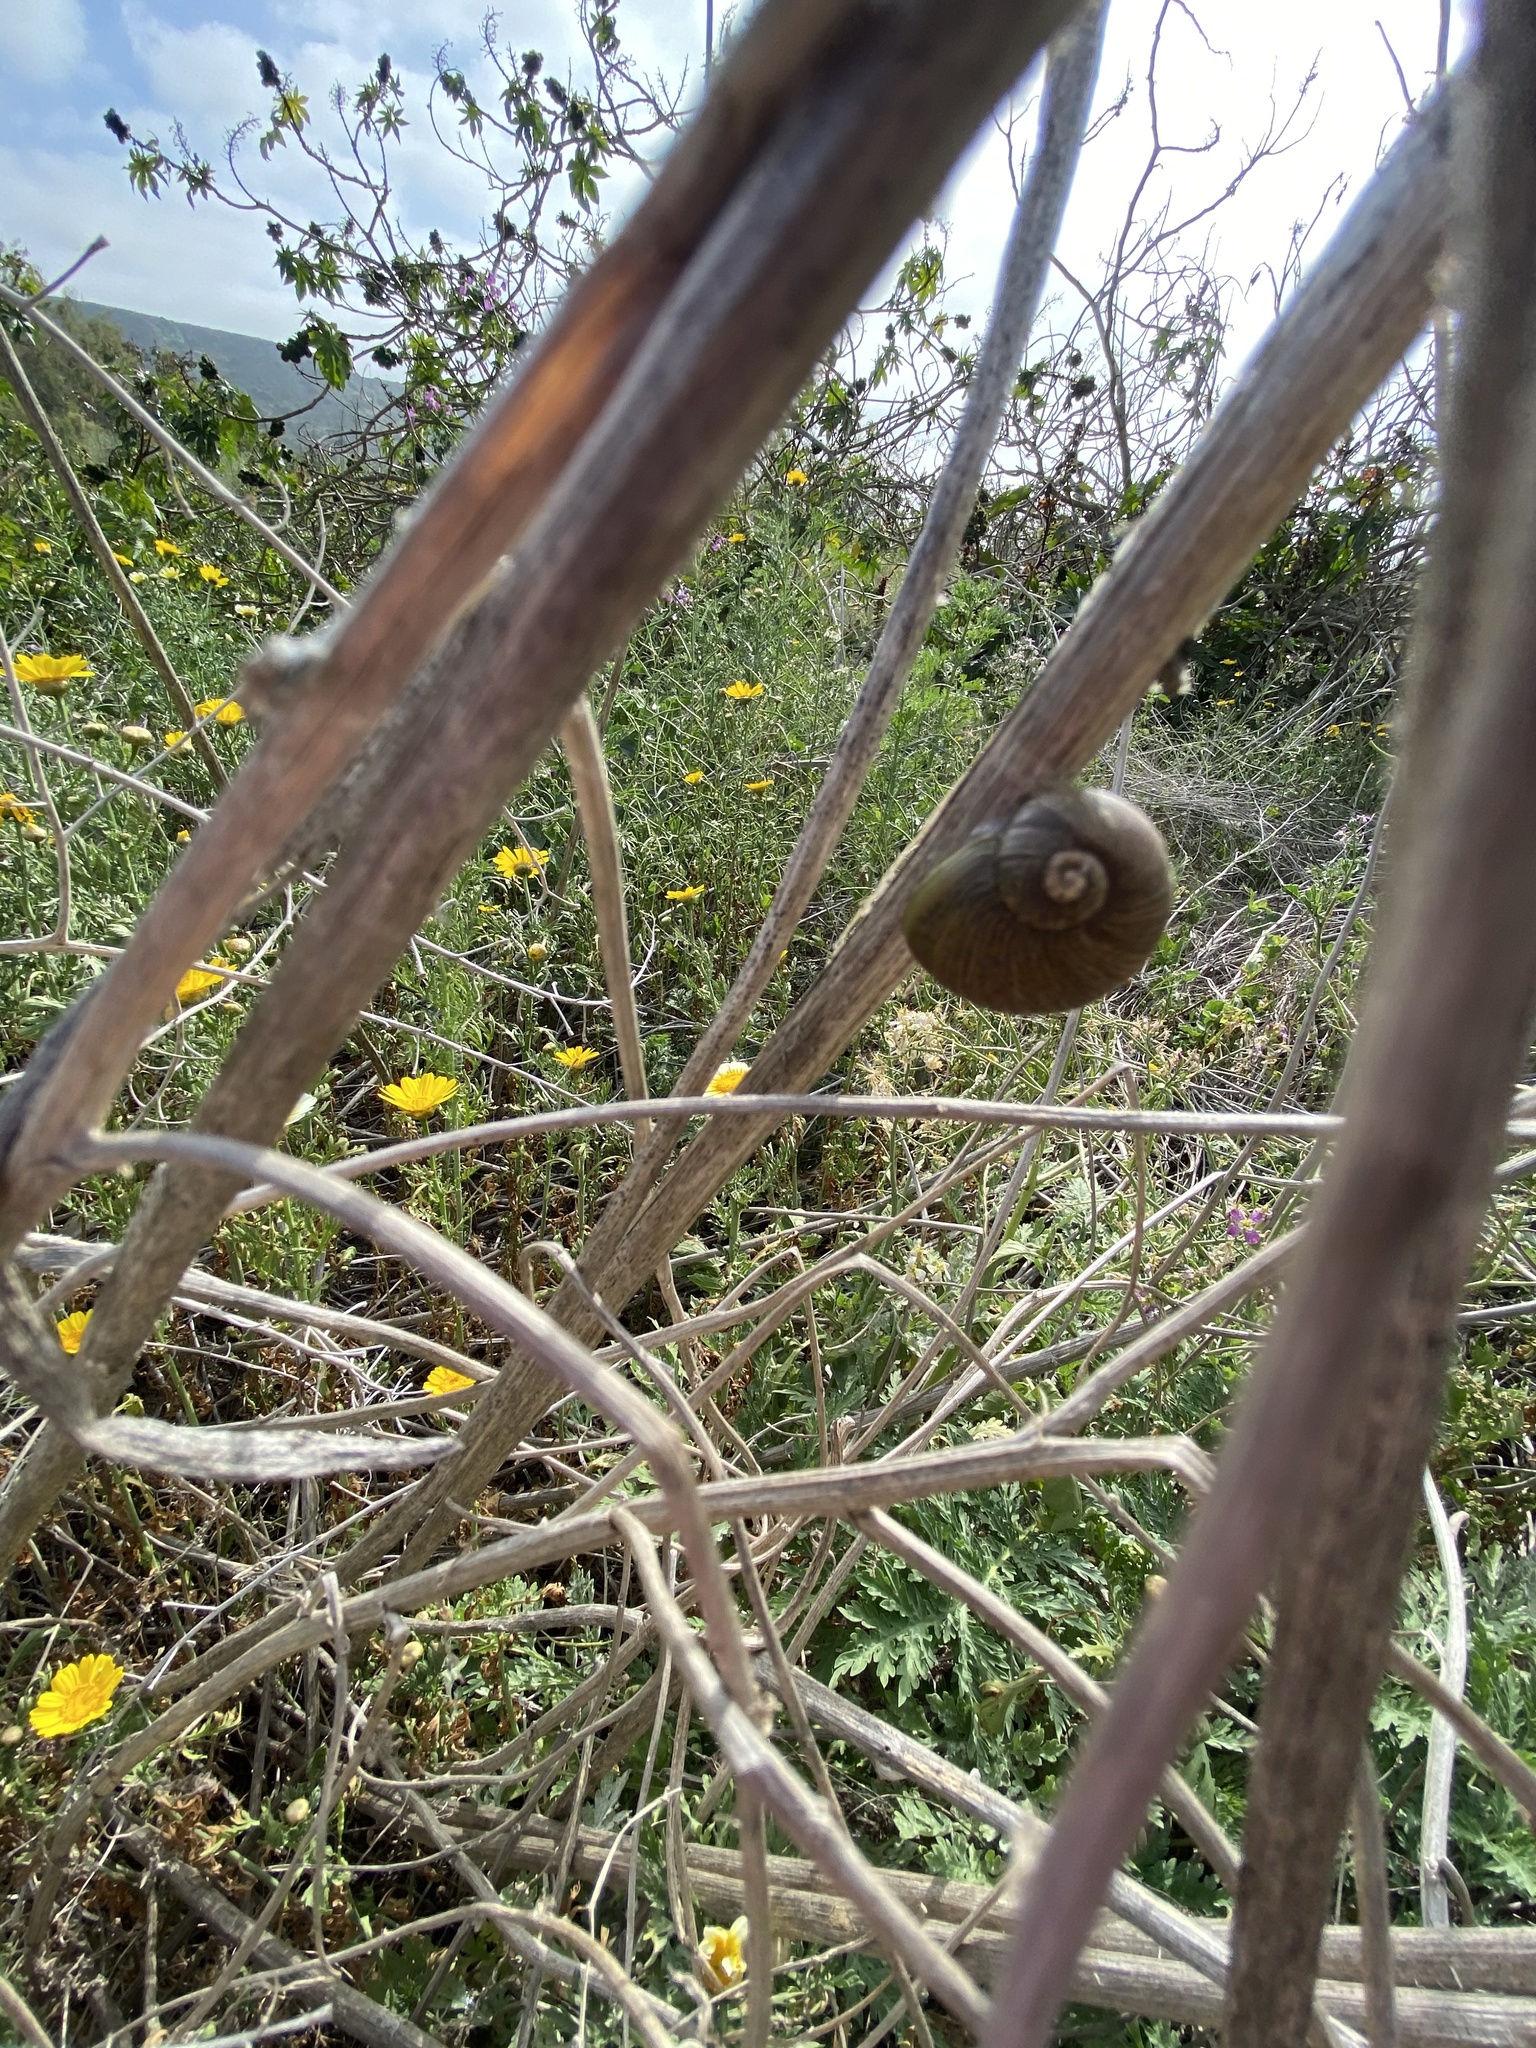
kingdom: Animalia
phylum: Mollusca
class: Gastropoda
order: Stylommatophora
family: Helicidae
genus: Cantareus
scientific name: Cantareus apertus
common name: Green gardensnail
